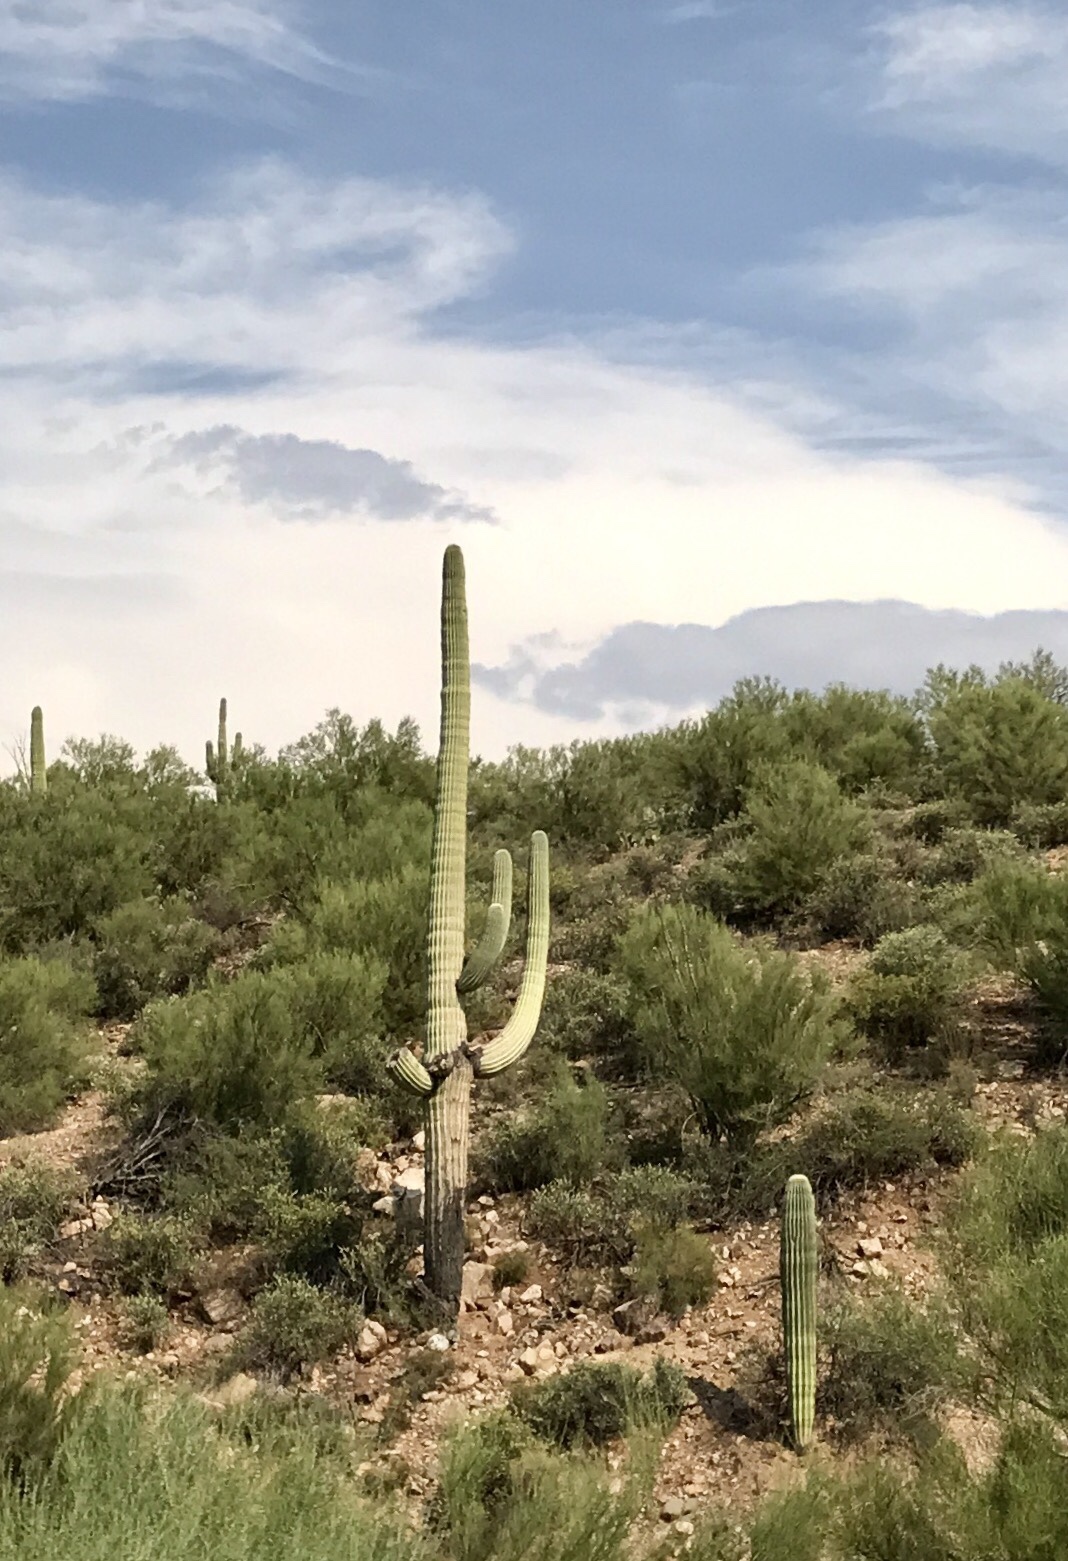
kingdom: Plantae
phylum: Tracheophyta
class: Magnoliopsida
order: Caryophyllales
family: Cactaceae
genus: Carnegiea
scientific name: Carnegiea gigantea
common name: Saguaro
